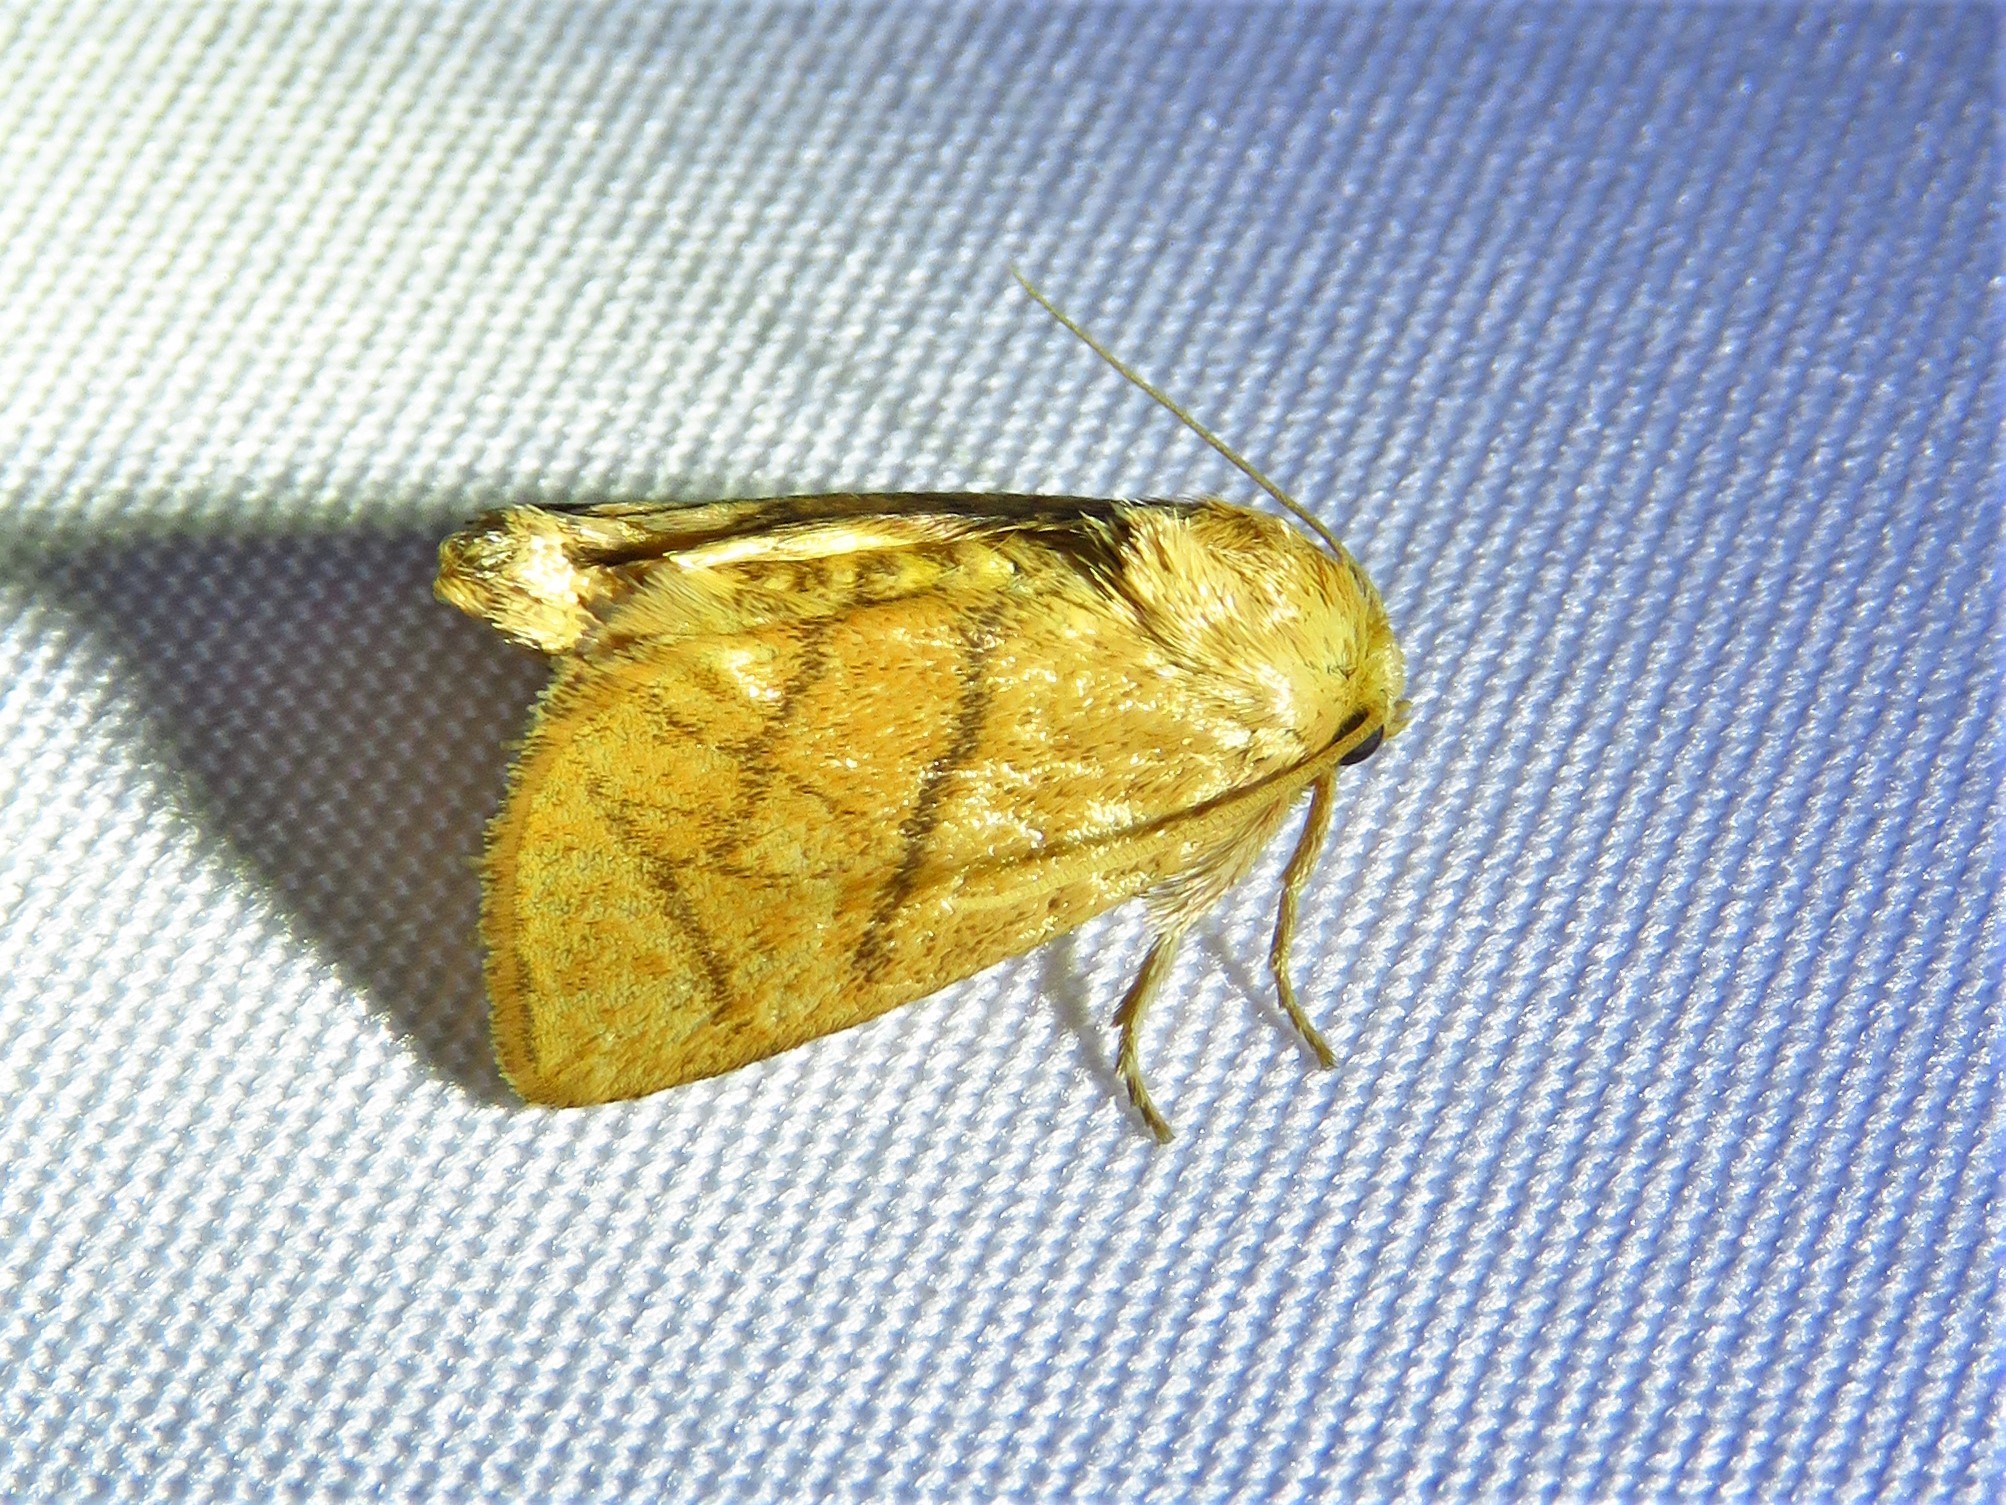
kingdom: Animalia
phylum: Arthropoda
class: Insecta
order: Lepidoptera
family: Limacodidae
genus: Apoda
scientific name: Apoda y-inversa
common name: Yellow-collared slug moth
